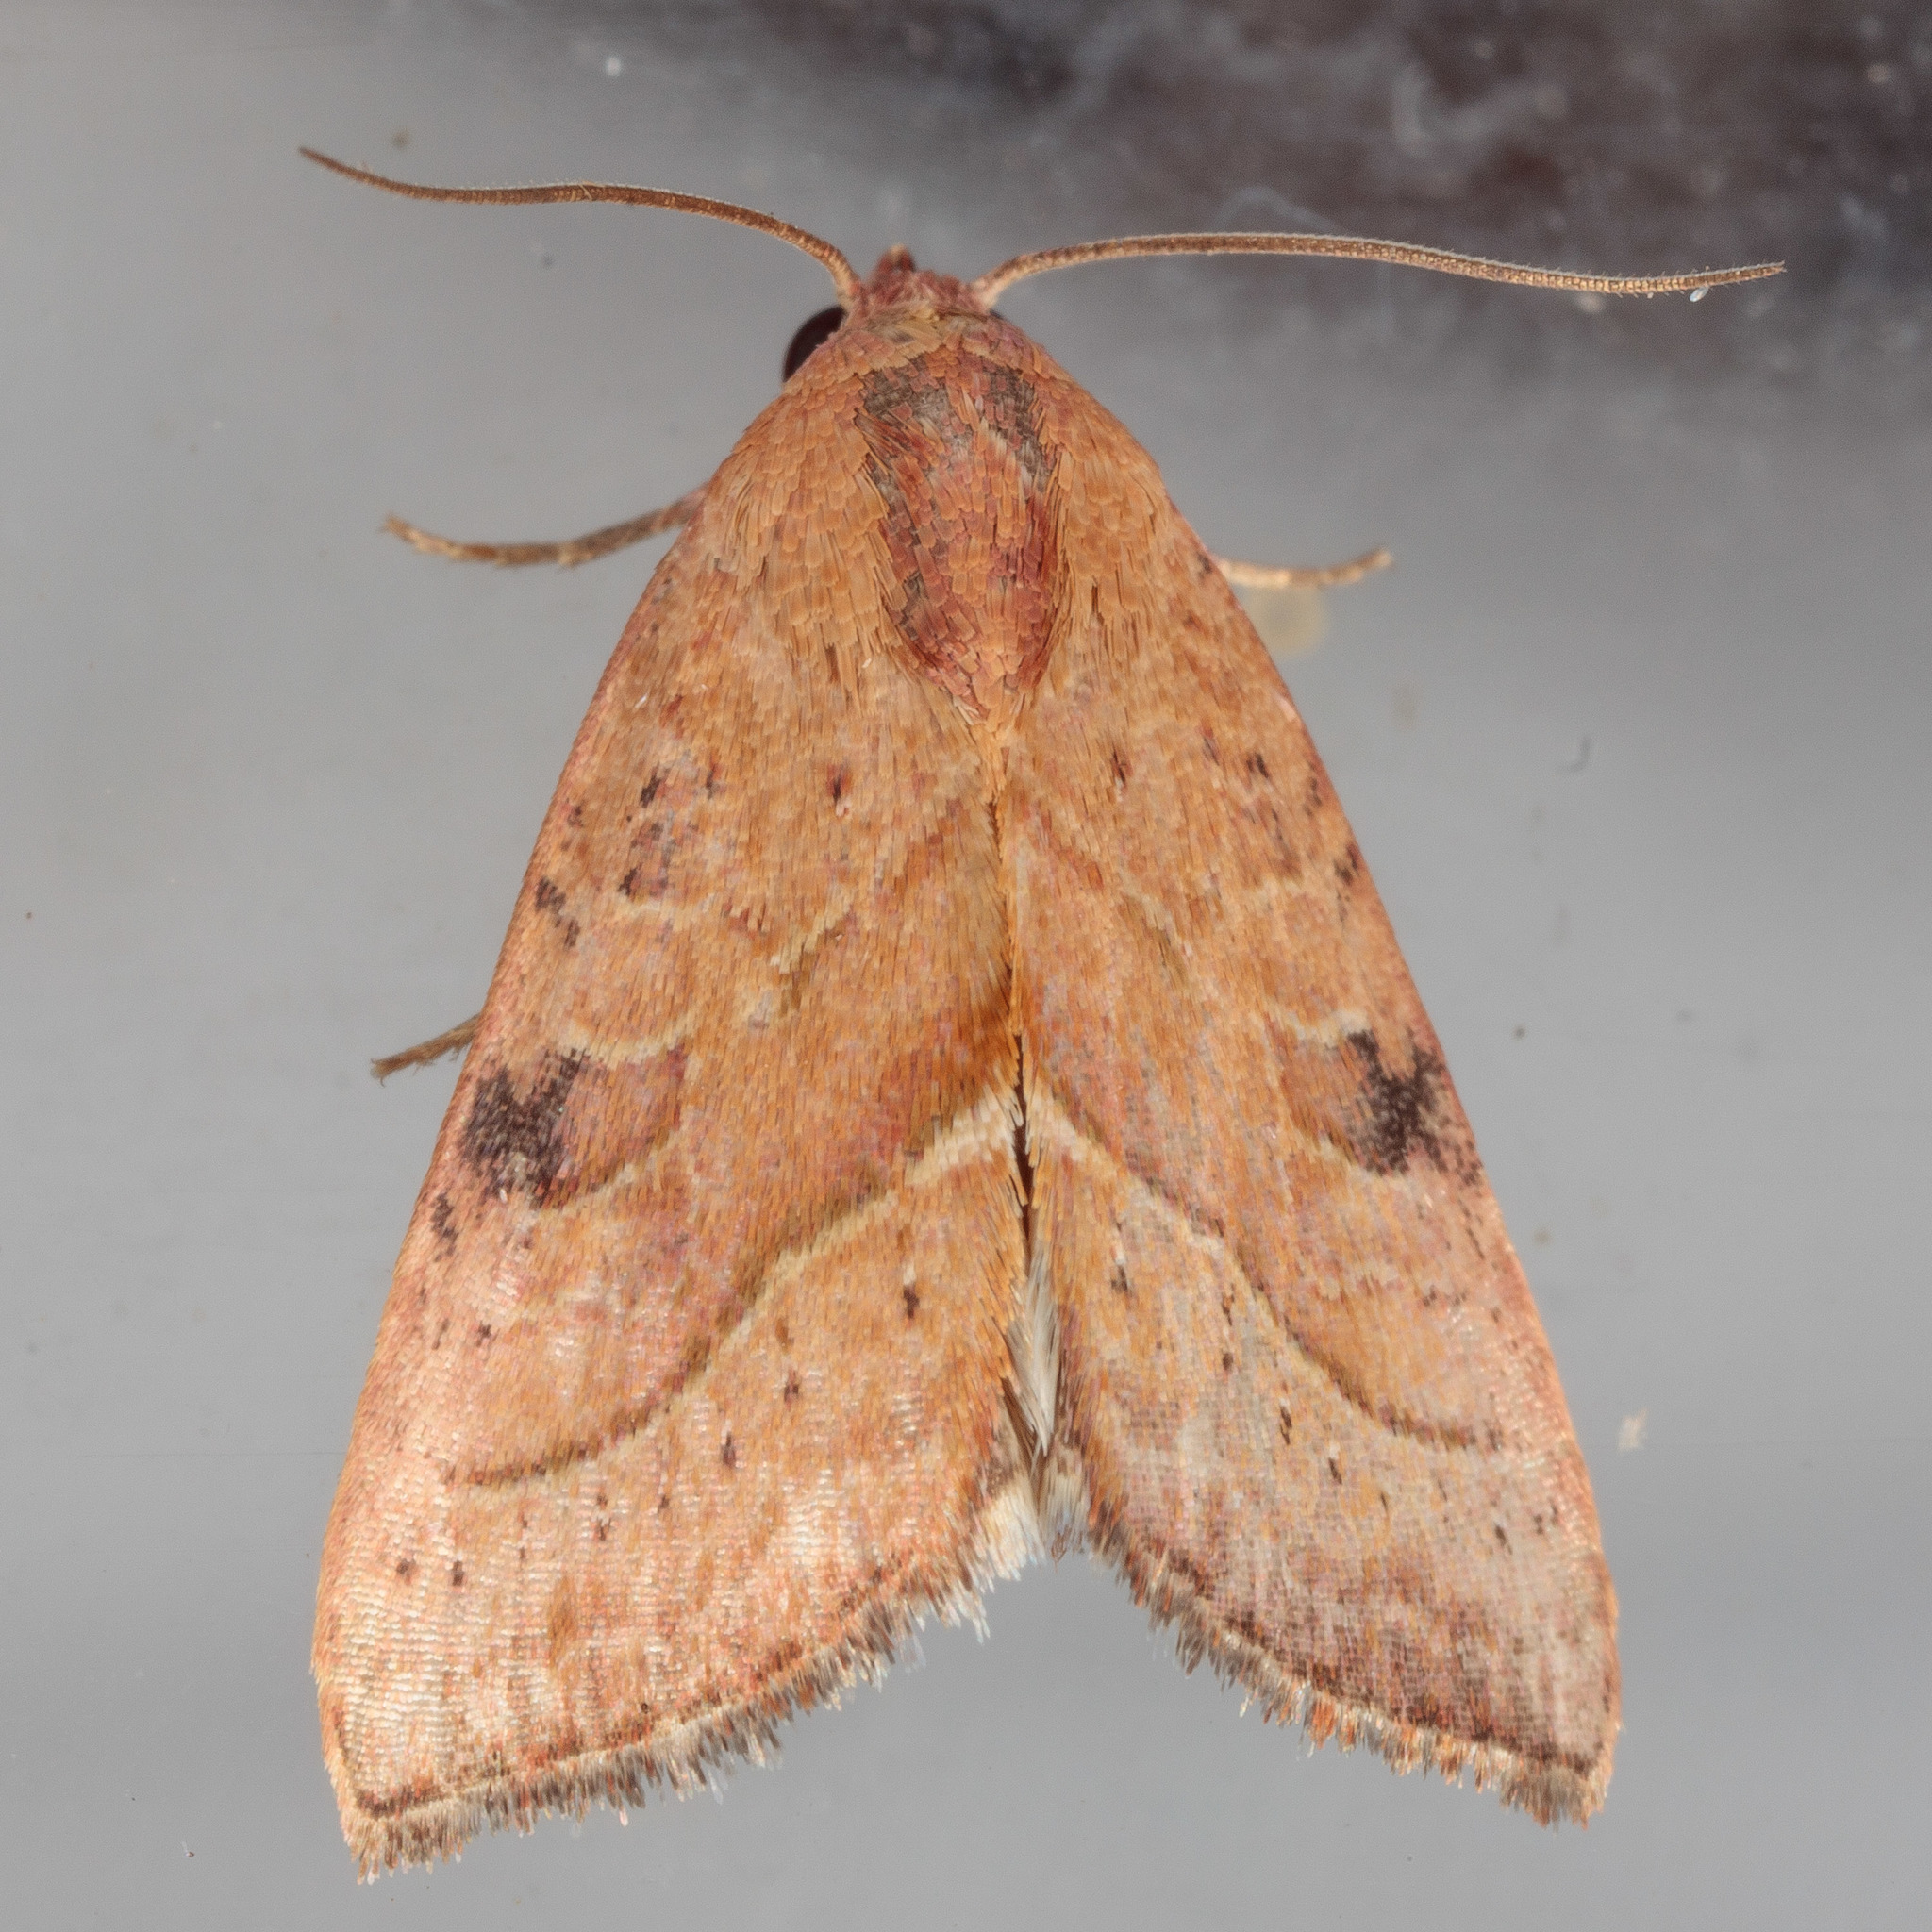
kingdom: Animalia
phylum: Arthropoda
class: Insecta
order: Lepidoptera
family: Noctuidae
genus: Galgula
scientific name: Galgula partita
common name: Wedgeling
